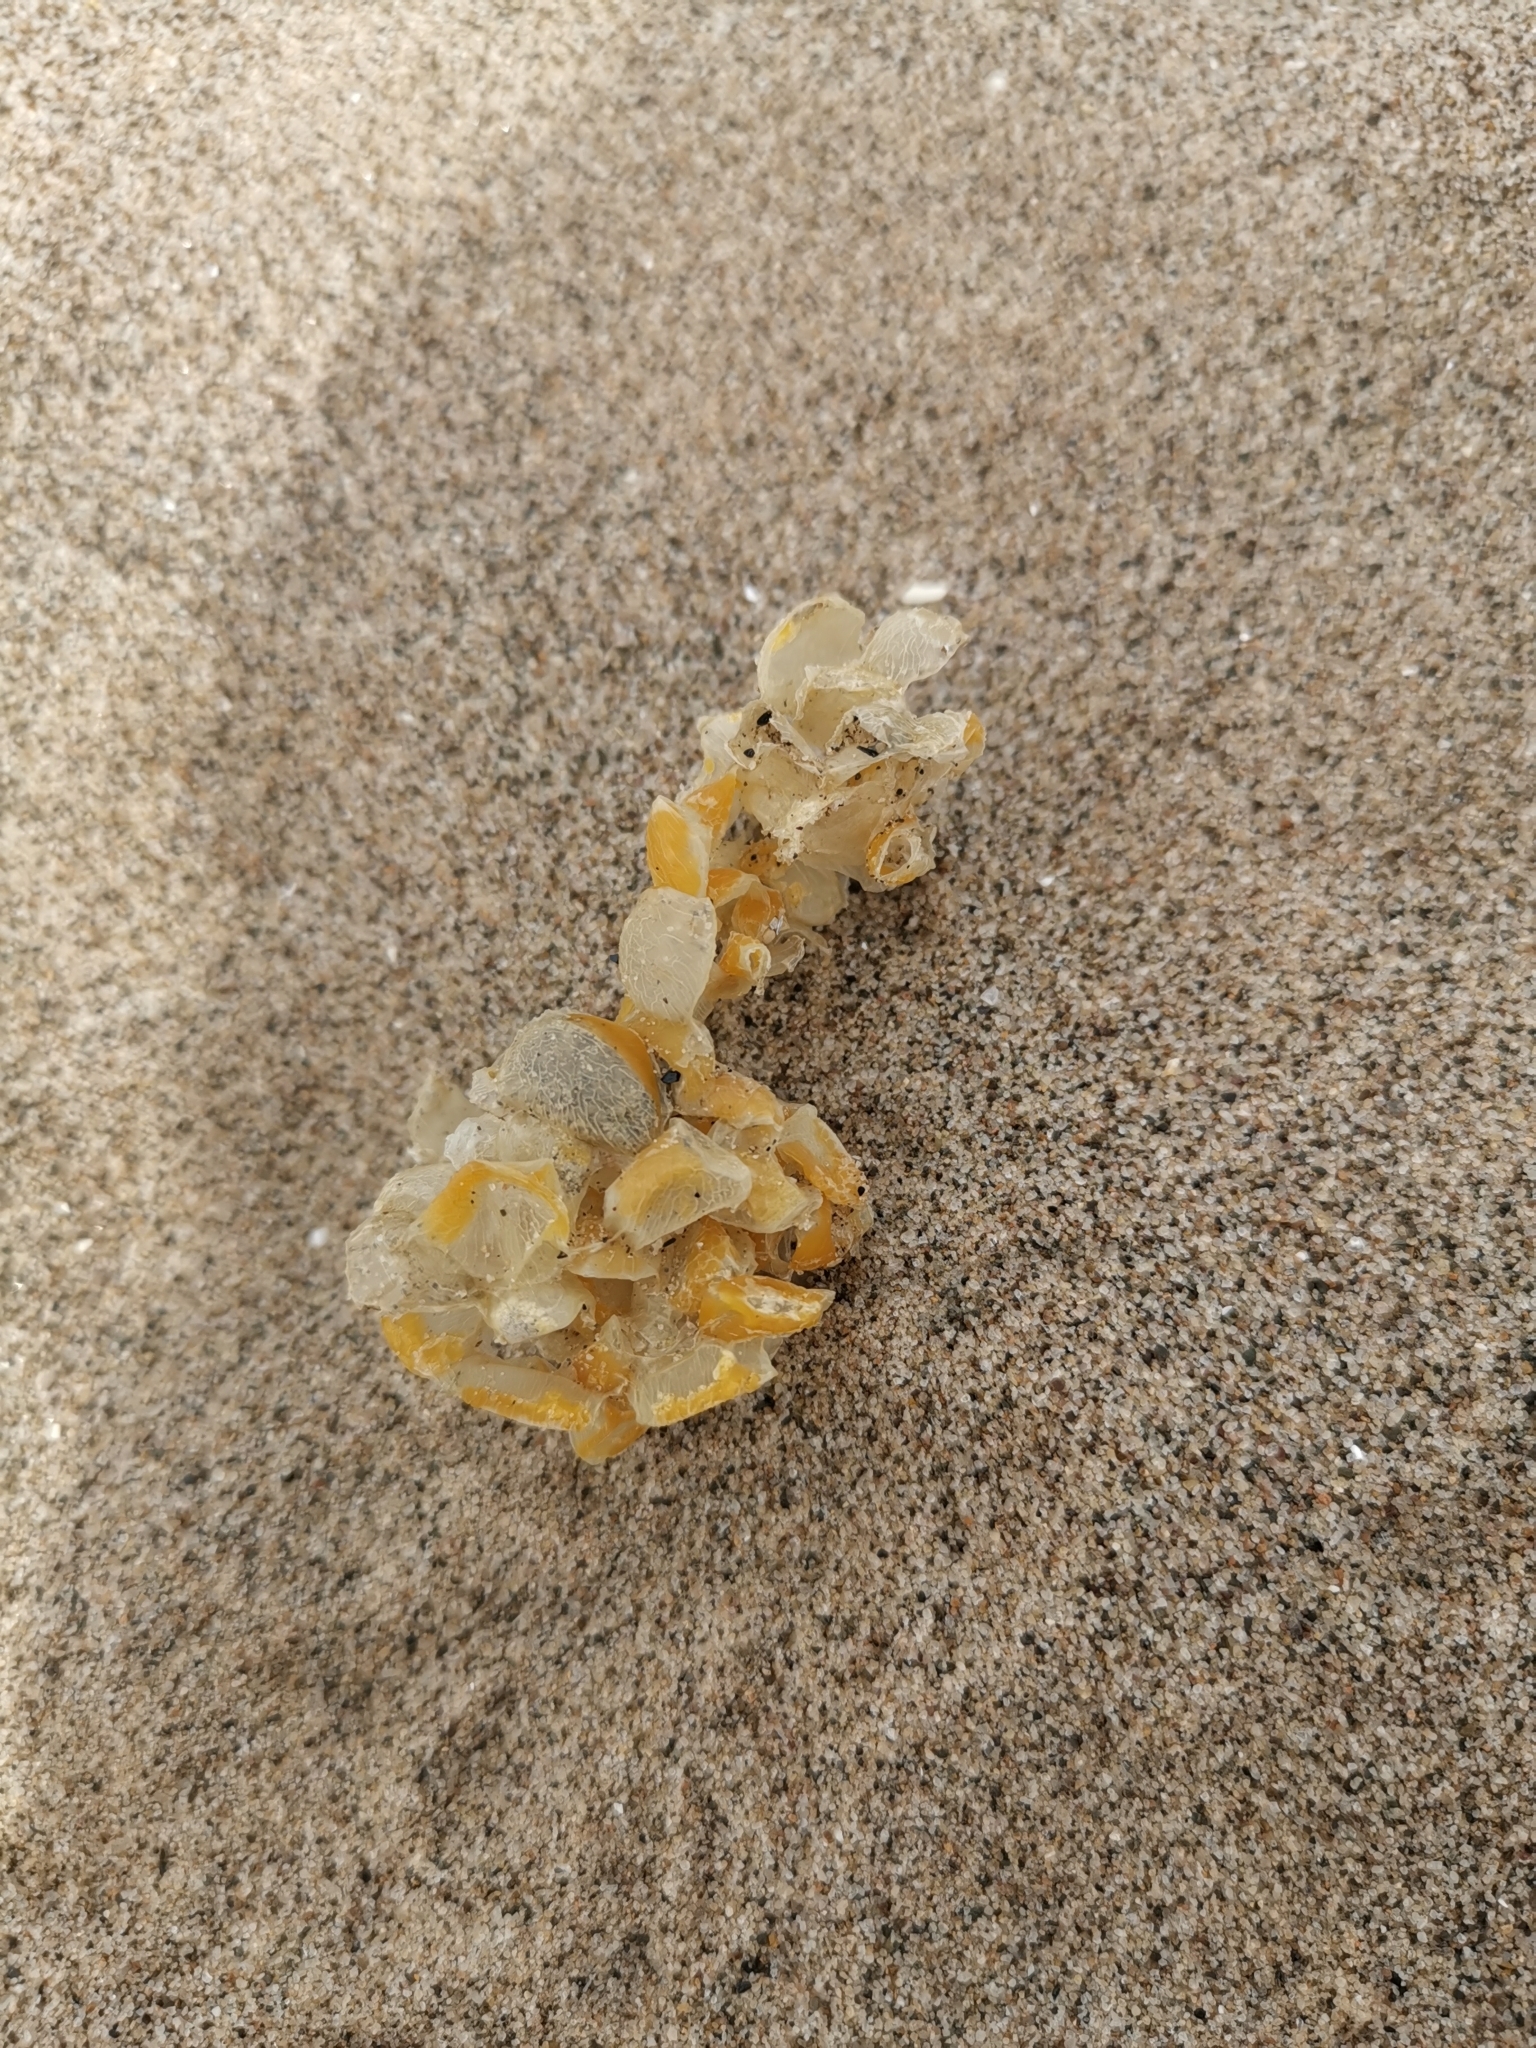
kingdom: Animalia
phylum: Mollusca
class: Gastropoda
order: Neogastropoda
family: Buccinidae
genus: Buccinum
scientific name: Buccinum undatum
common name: Common whelk
